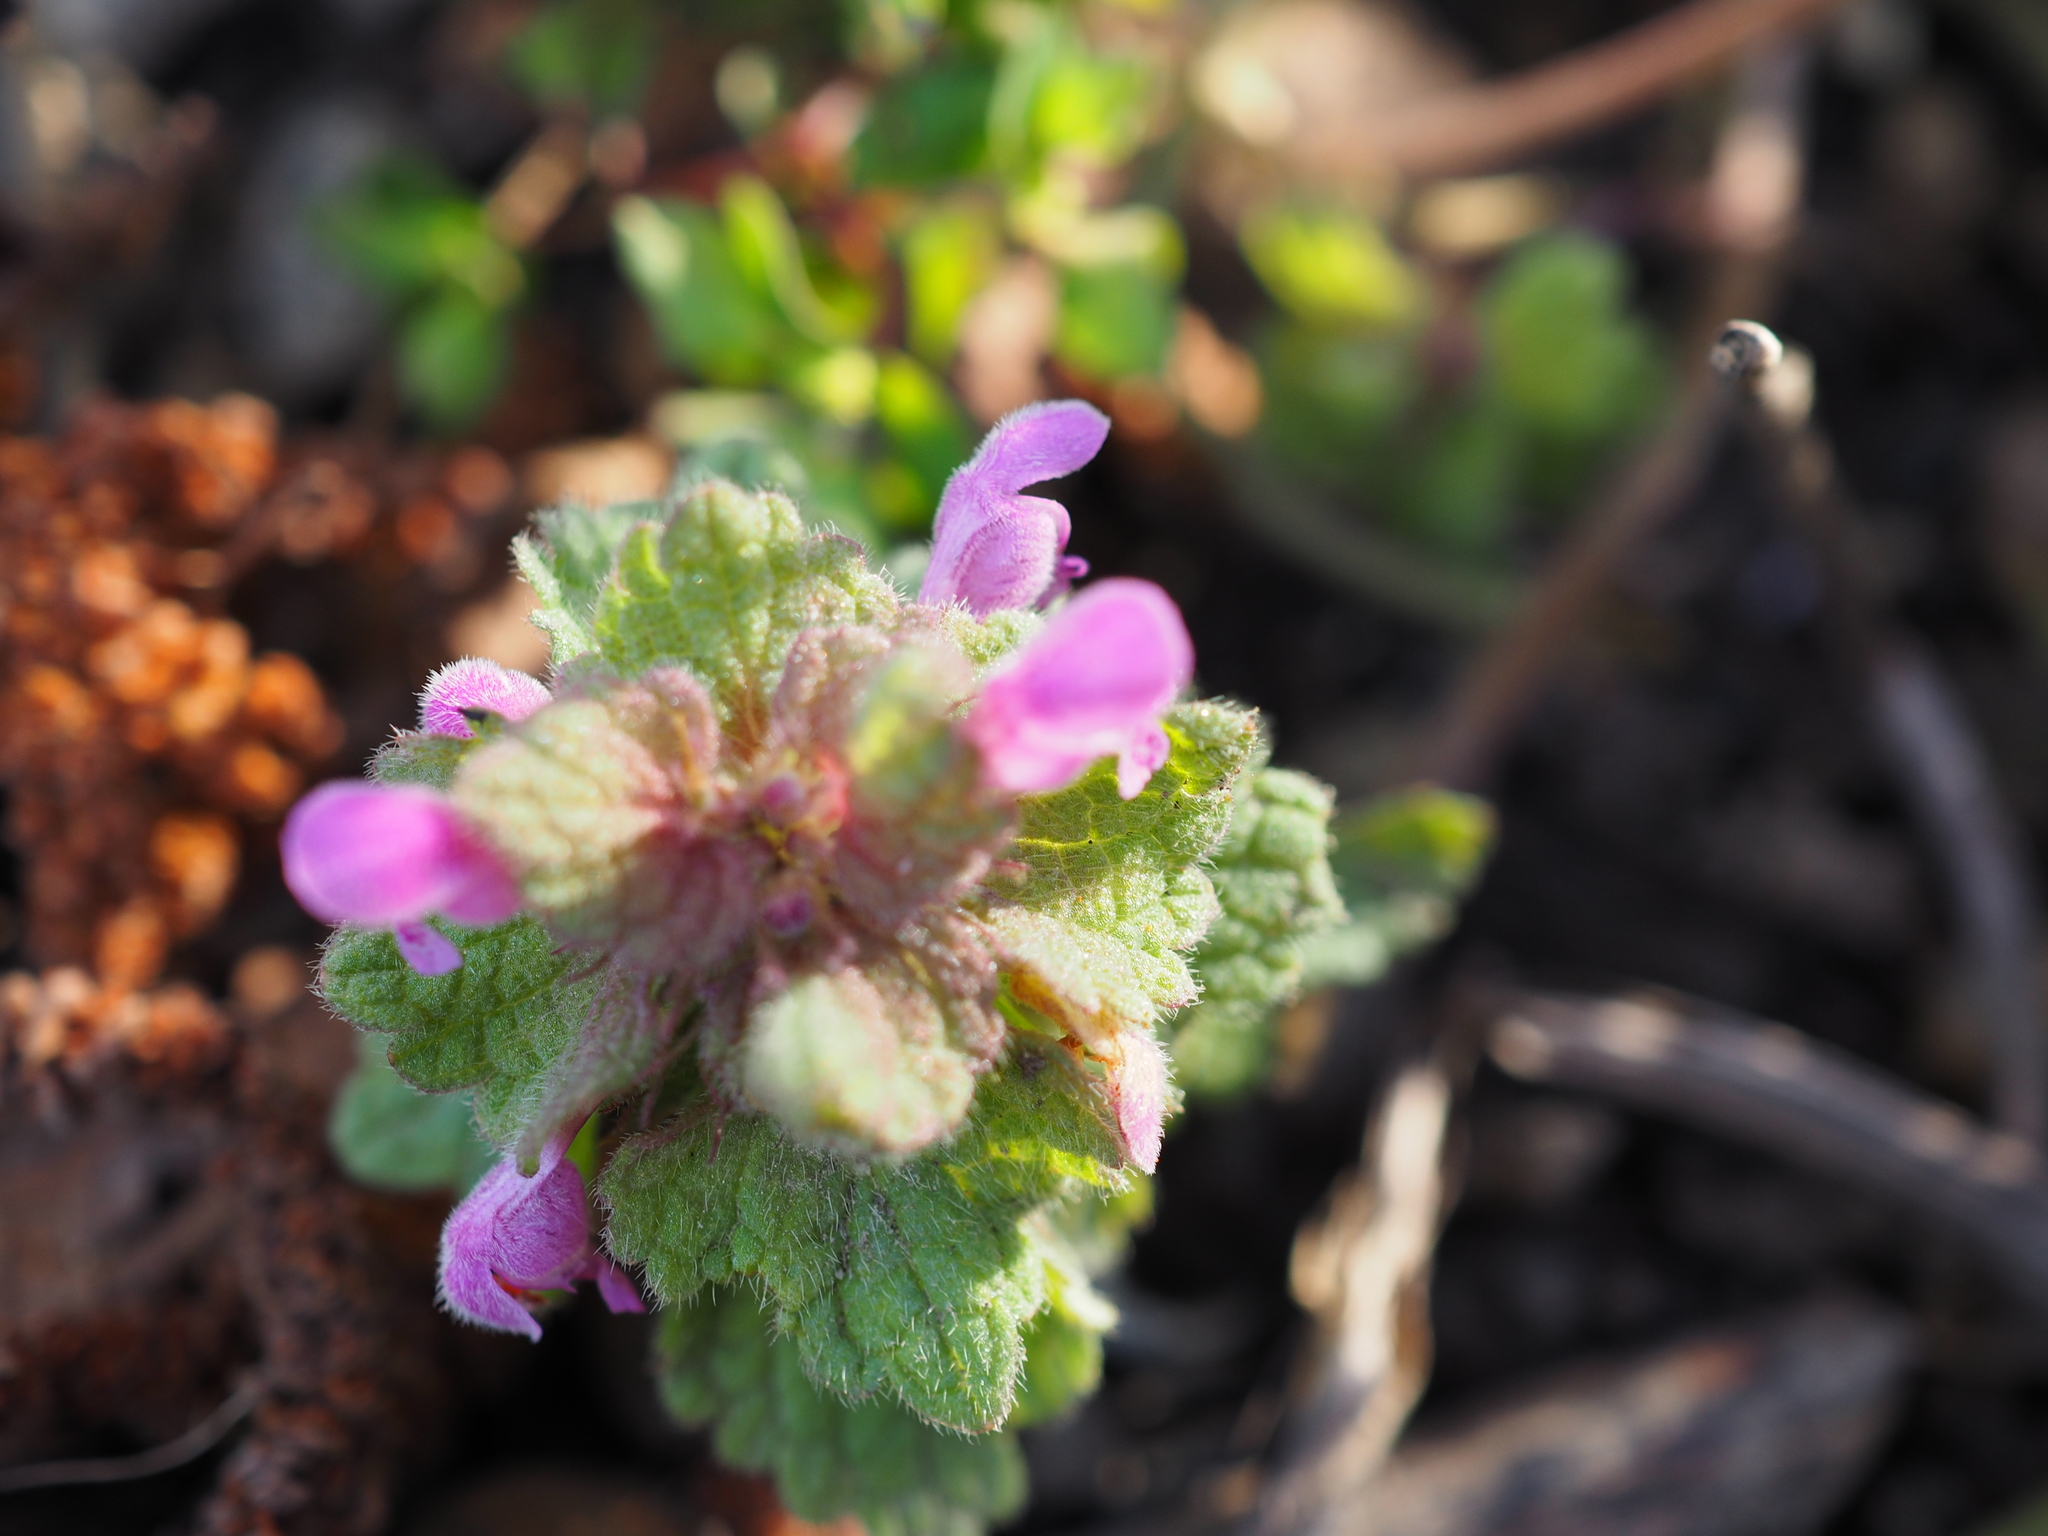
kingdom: Plantae
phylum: Tracheophyta
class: Magnoliopsida
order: Lamiales
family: Lamiaceae
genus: Lamium
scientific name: Lamium purpureum
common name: Red dead-nettle
